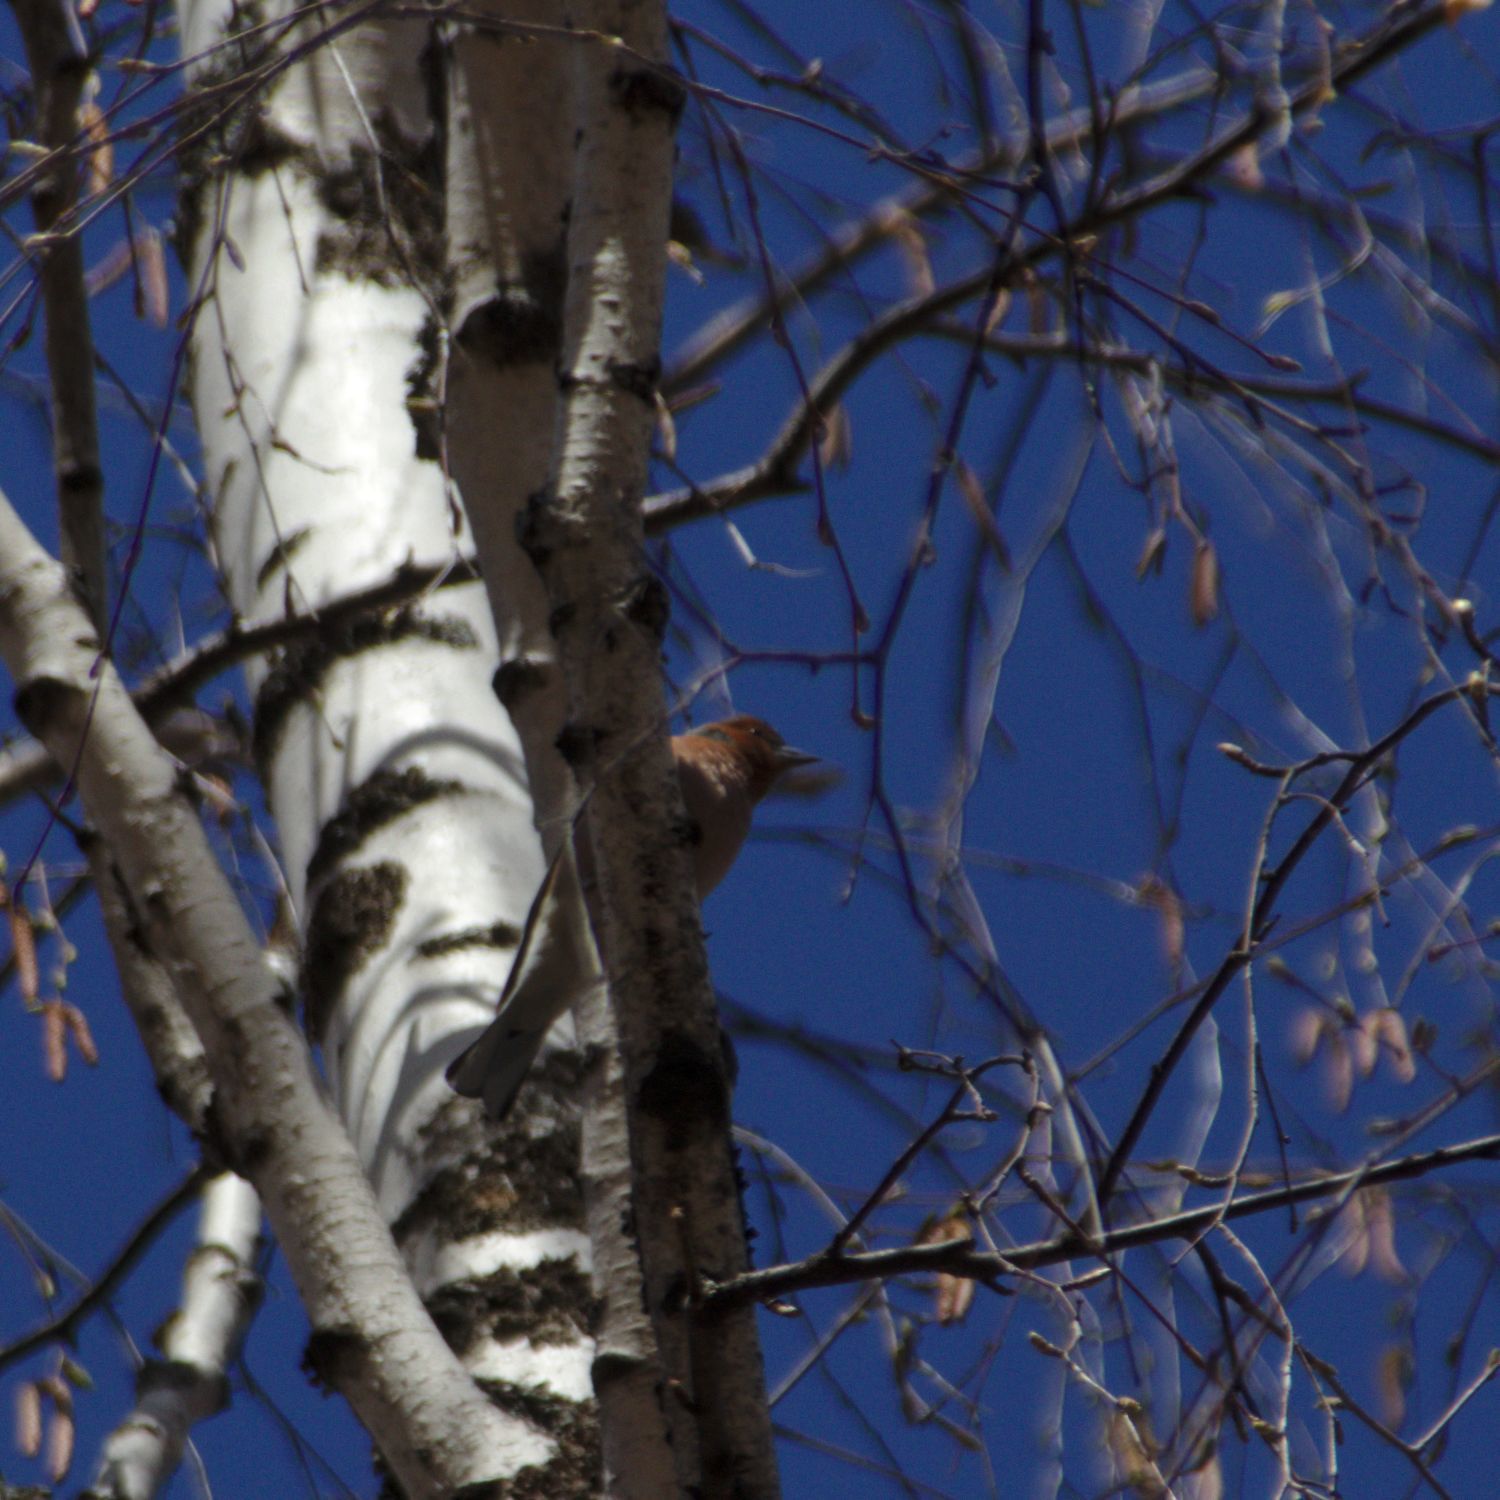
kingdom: Animalia
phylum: Chordata
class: Aves
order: Passeriformes
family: Fringillidae
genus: Fringilla
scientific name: Fringilla coelebs
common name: Common chaffinch
